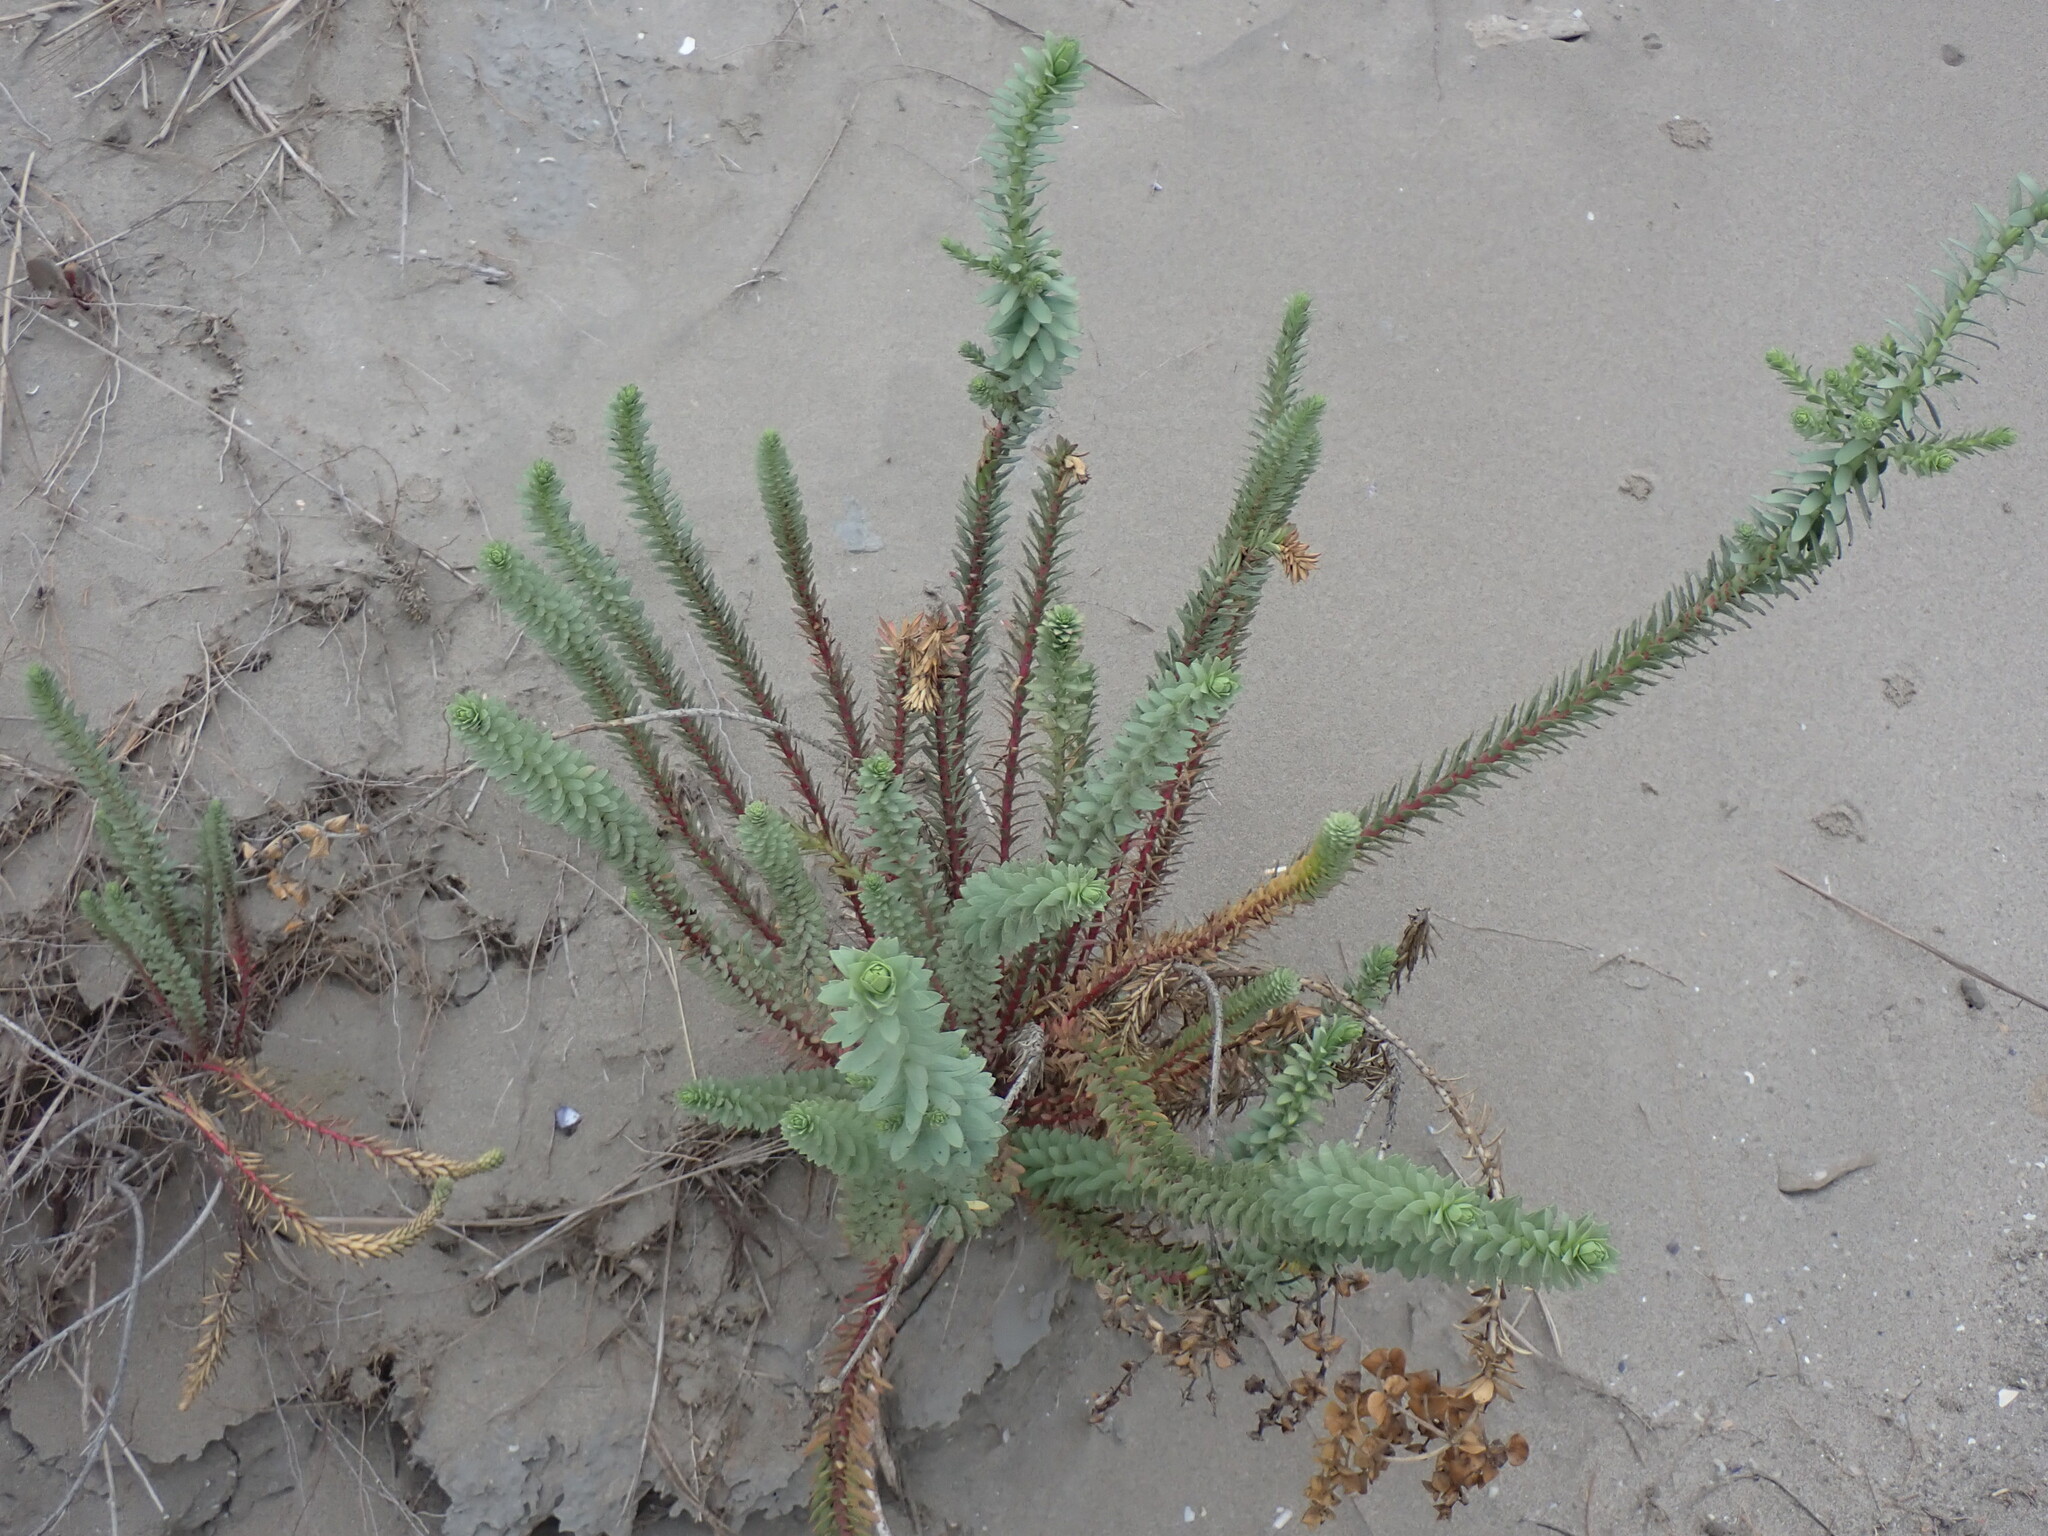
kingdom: Plantae
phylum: Tracheophyta
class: Magnoliopsida
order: Malpighiales
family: Euphorbiaceae
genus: Euphorbia
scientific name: Euphorbia paralias
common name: Sea spurge
